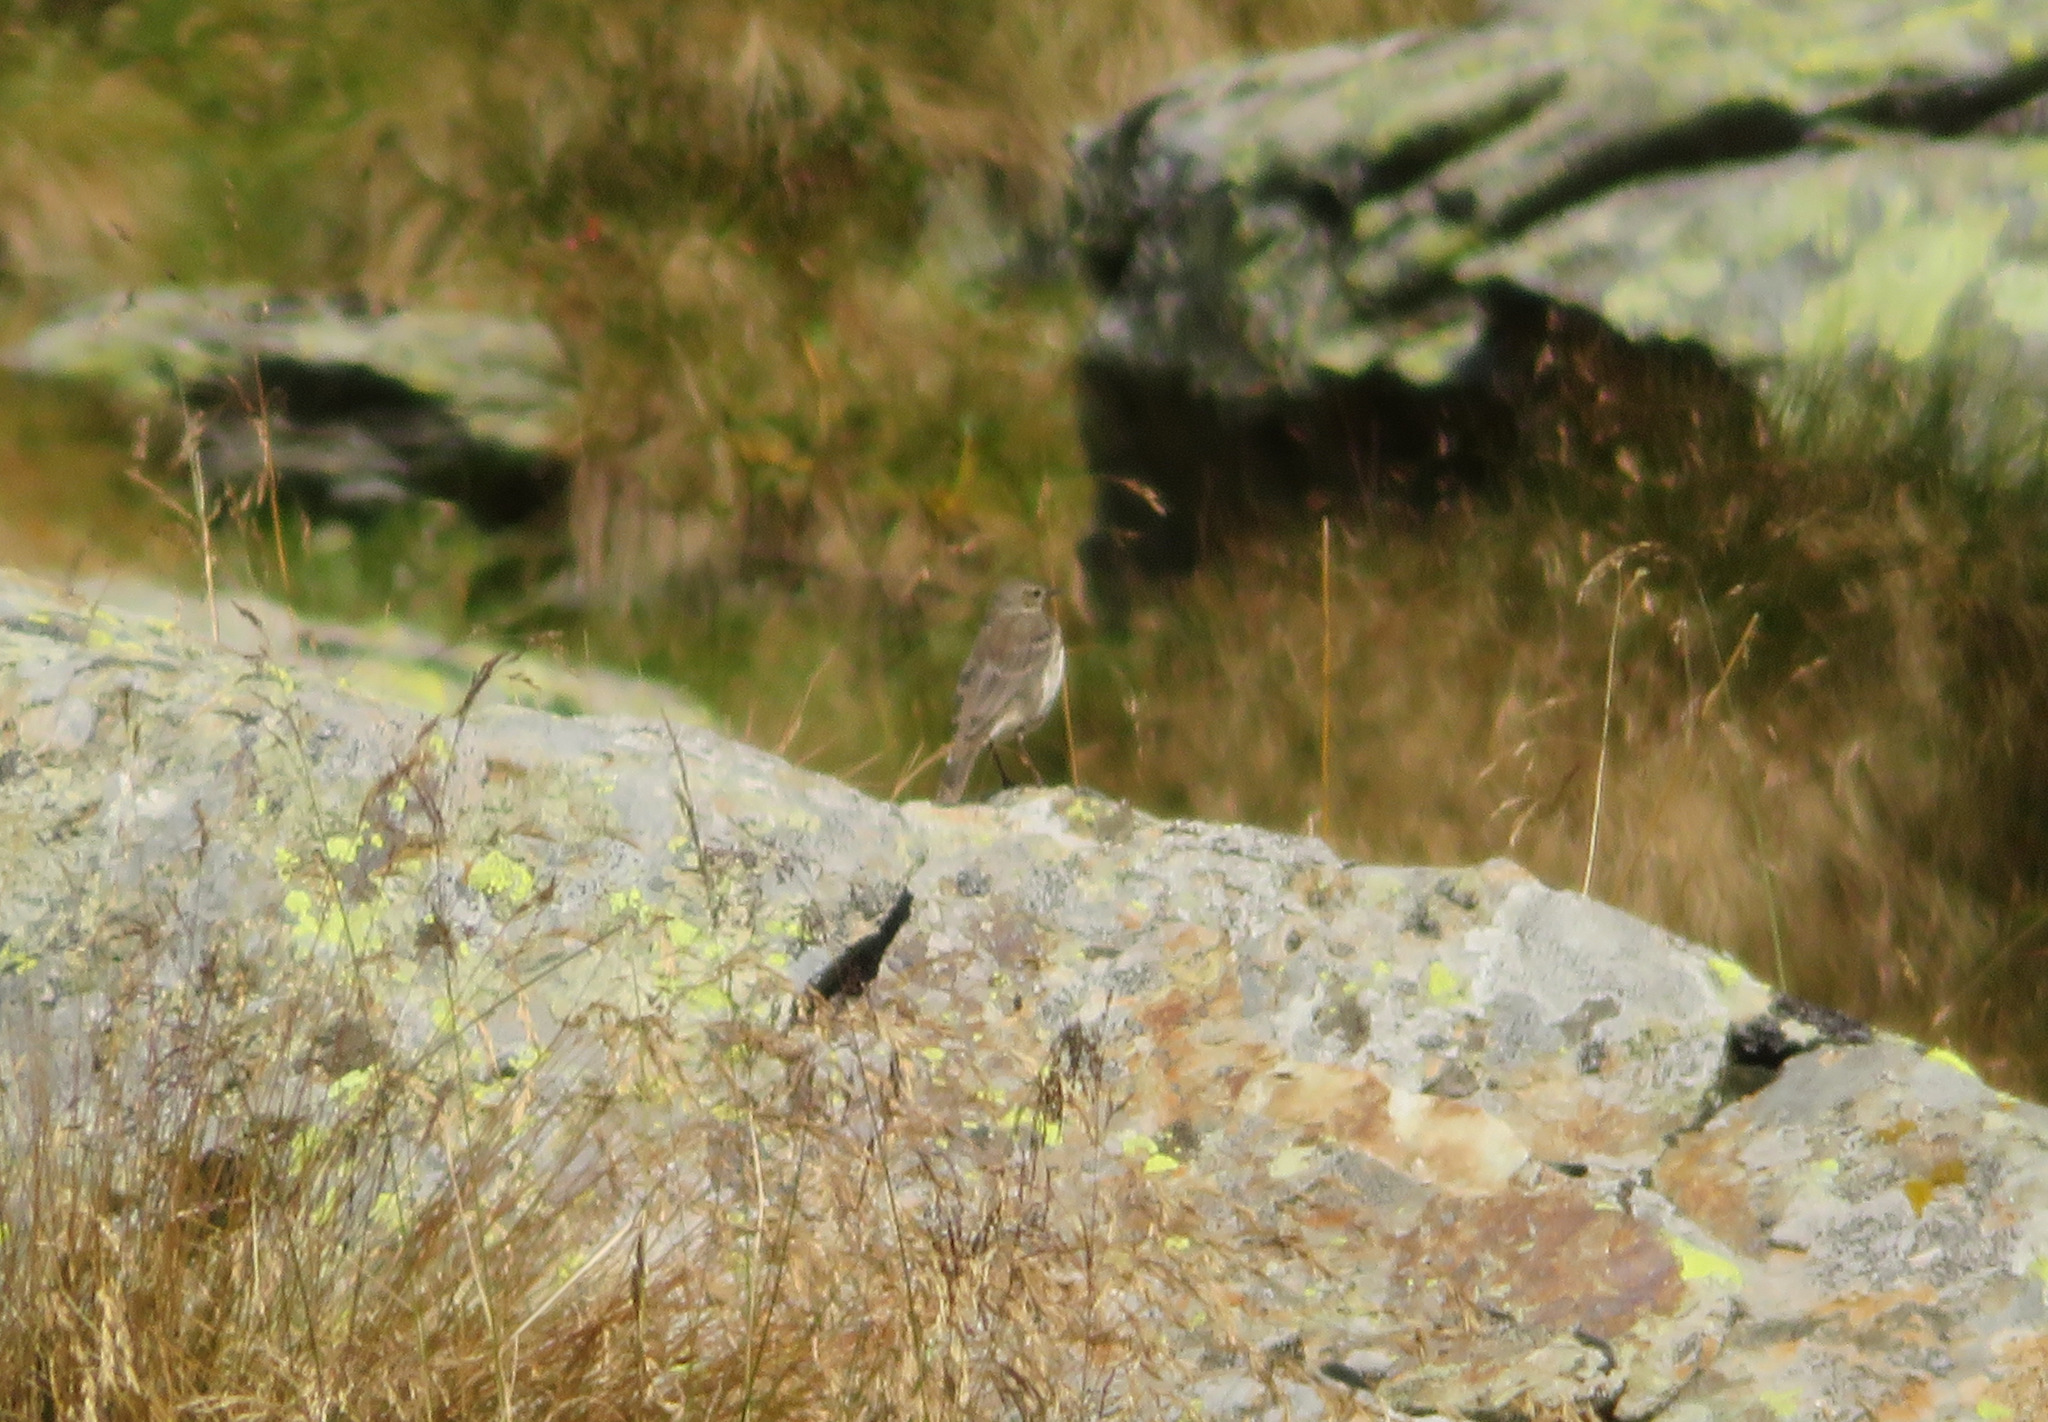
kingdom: Animalia
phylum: Chordata
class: Aves
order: Passeriformes
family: Motacillidae
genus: Anthus
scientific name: Anthus spinoletta
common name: Water pipit
